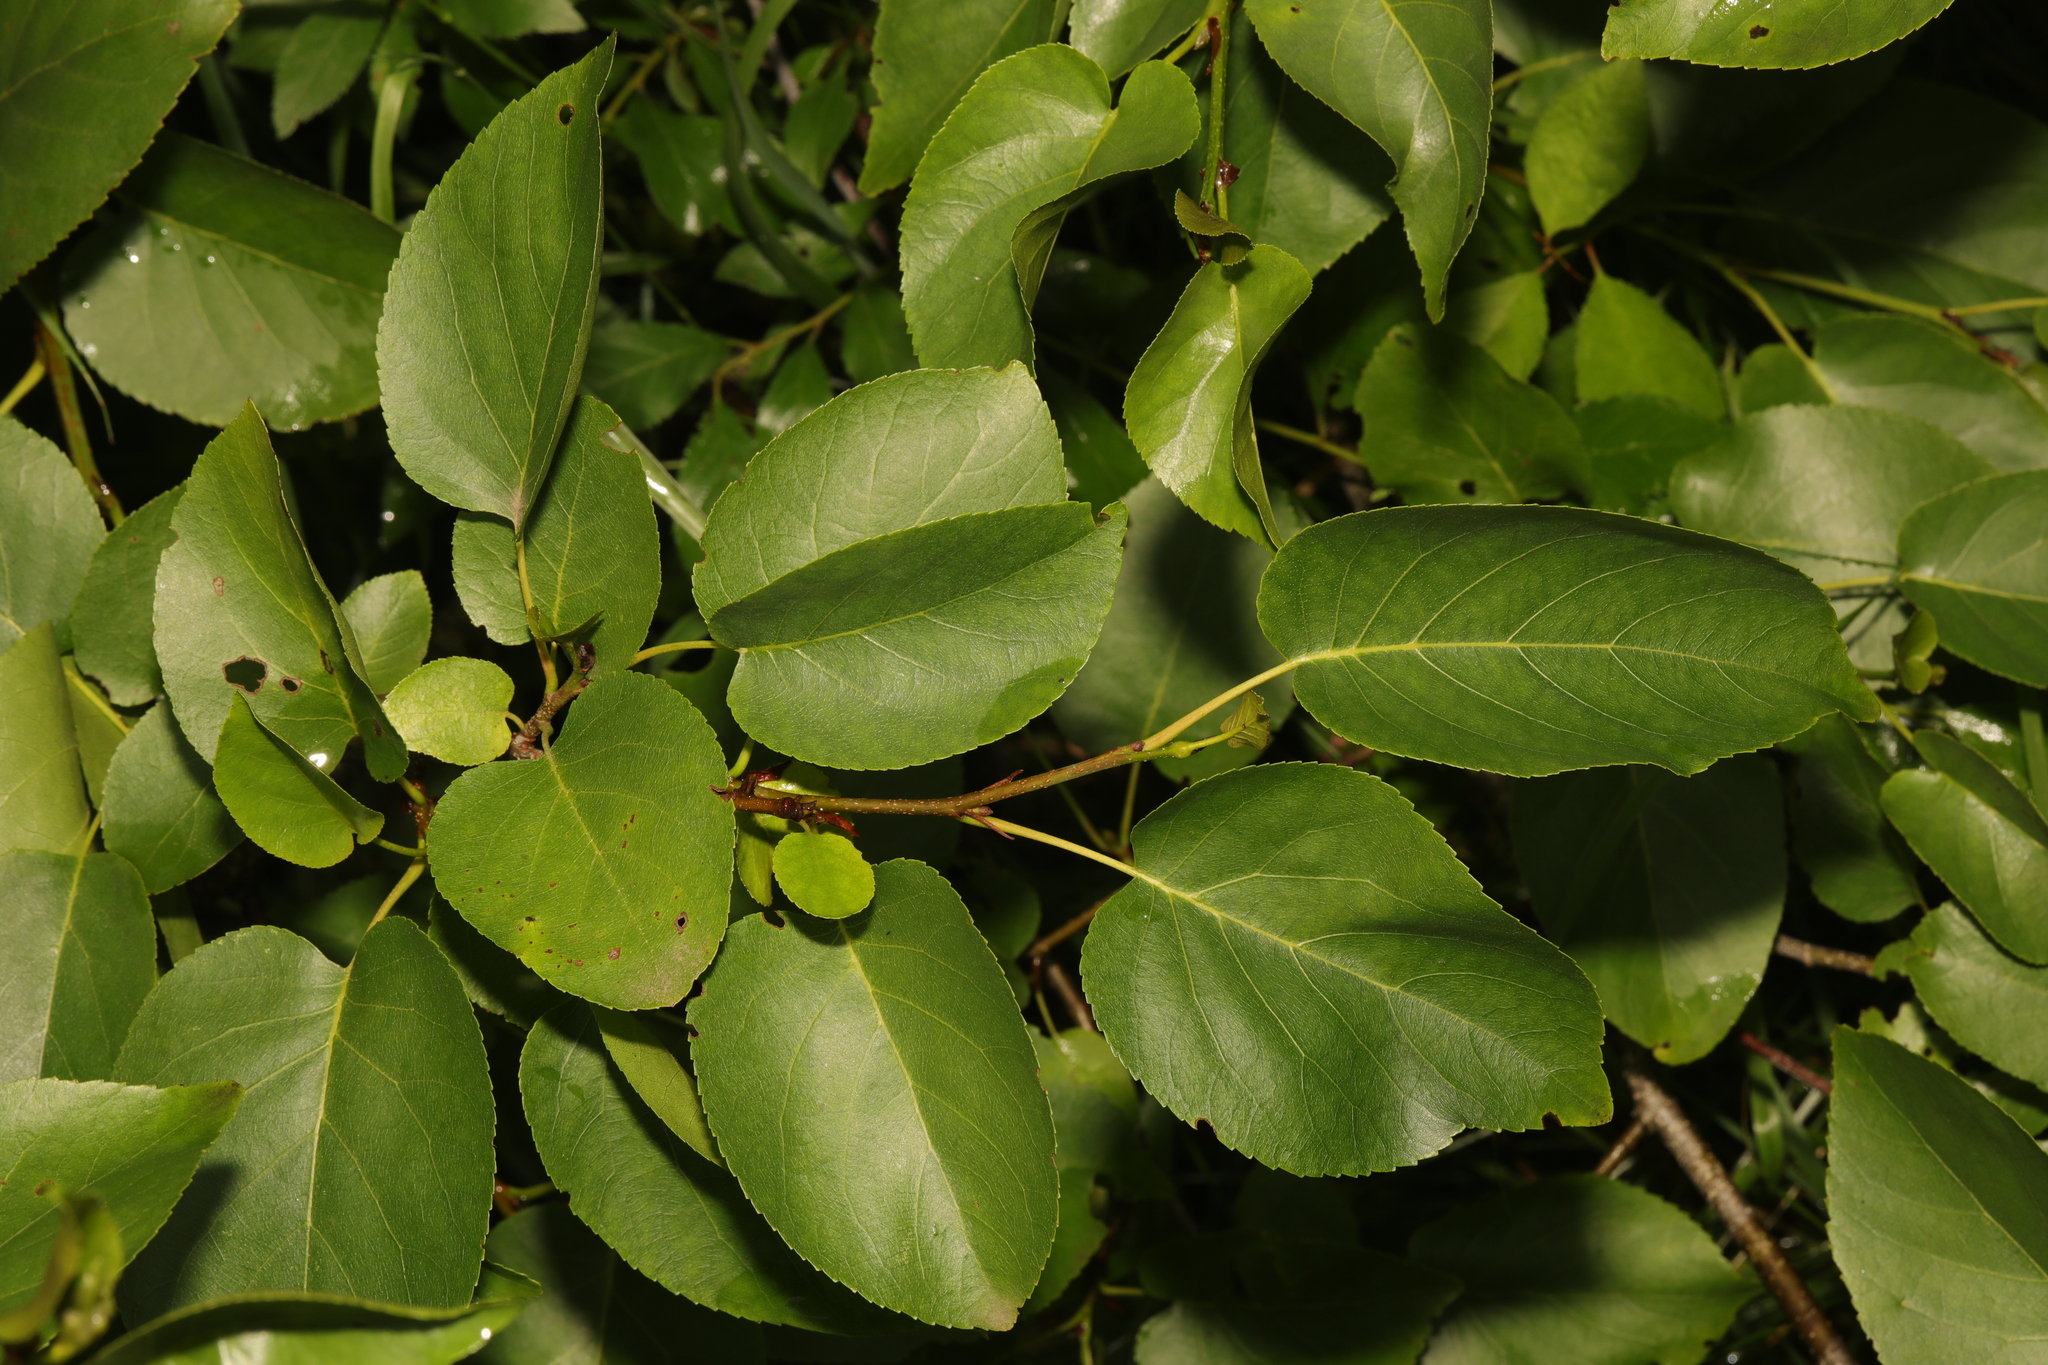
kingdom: Plantae
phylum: Tracheophyta
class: Magnoliopsida
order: Fagales
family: Betulaceae
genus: Alnus
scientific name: Alnus cordata
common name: Italian alder
